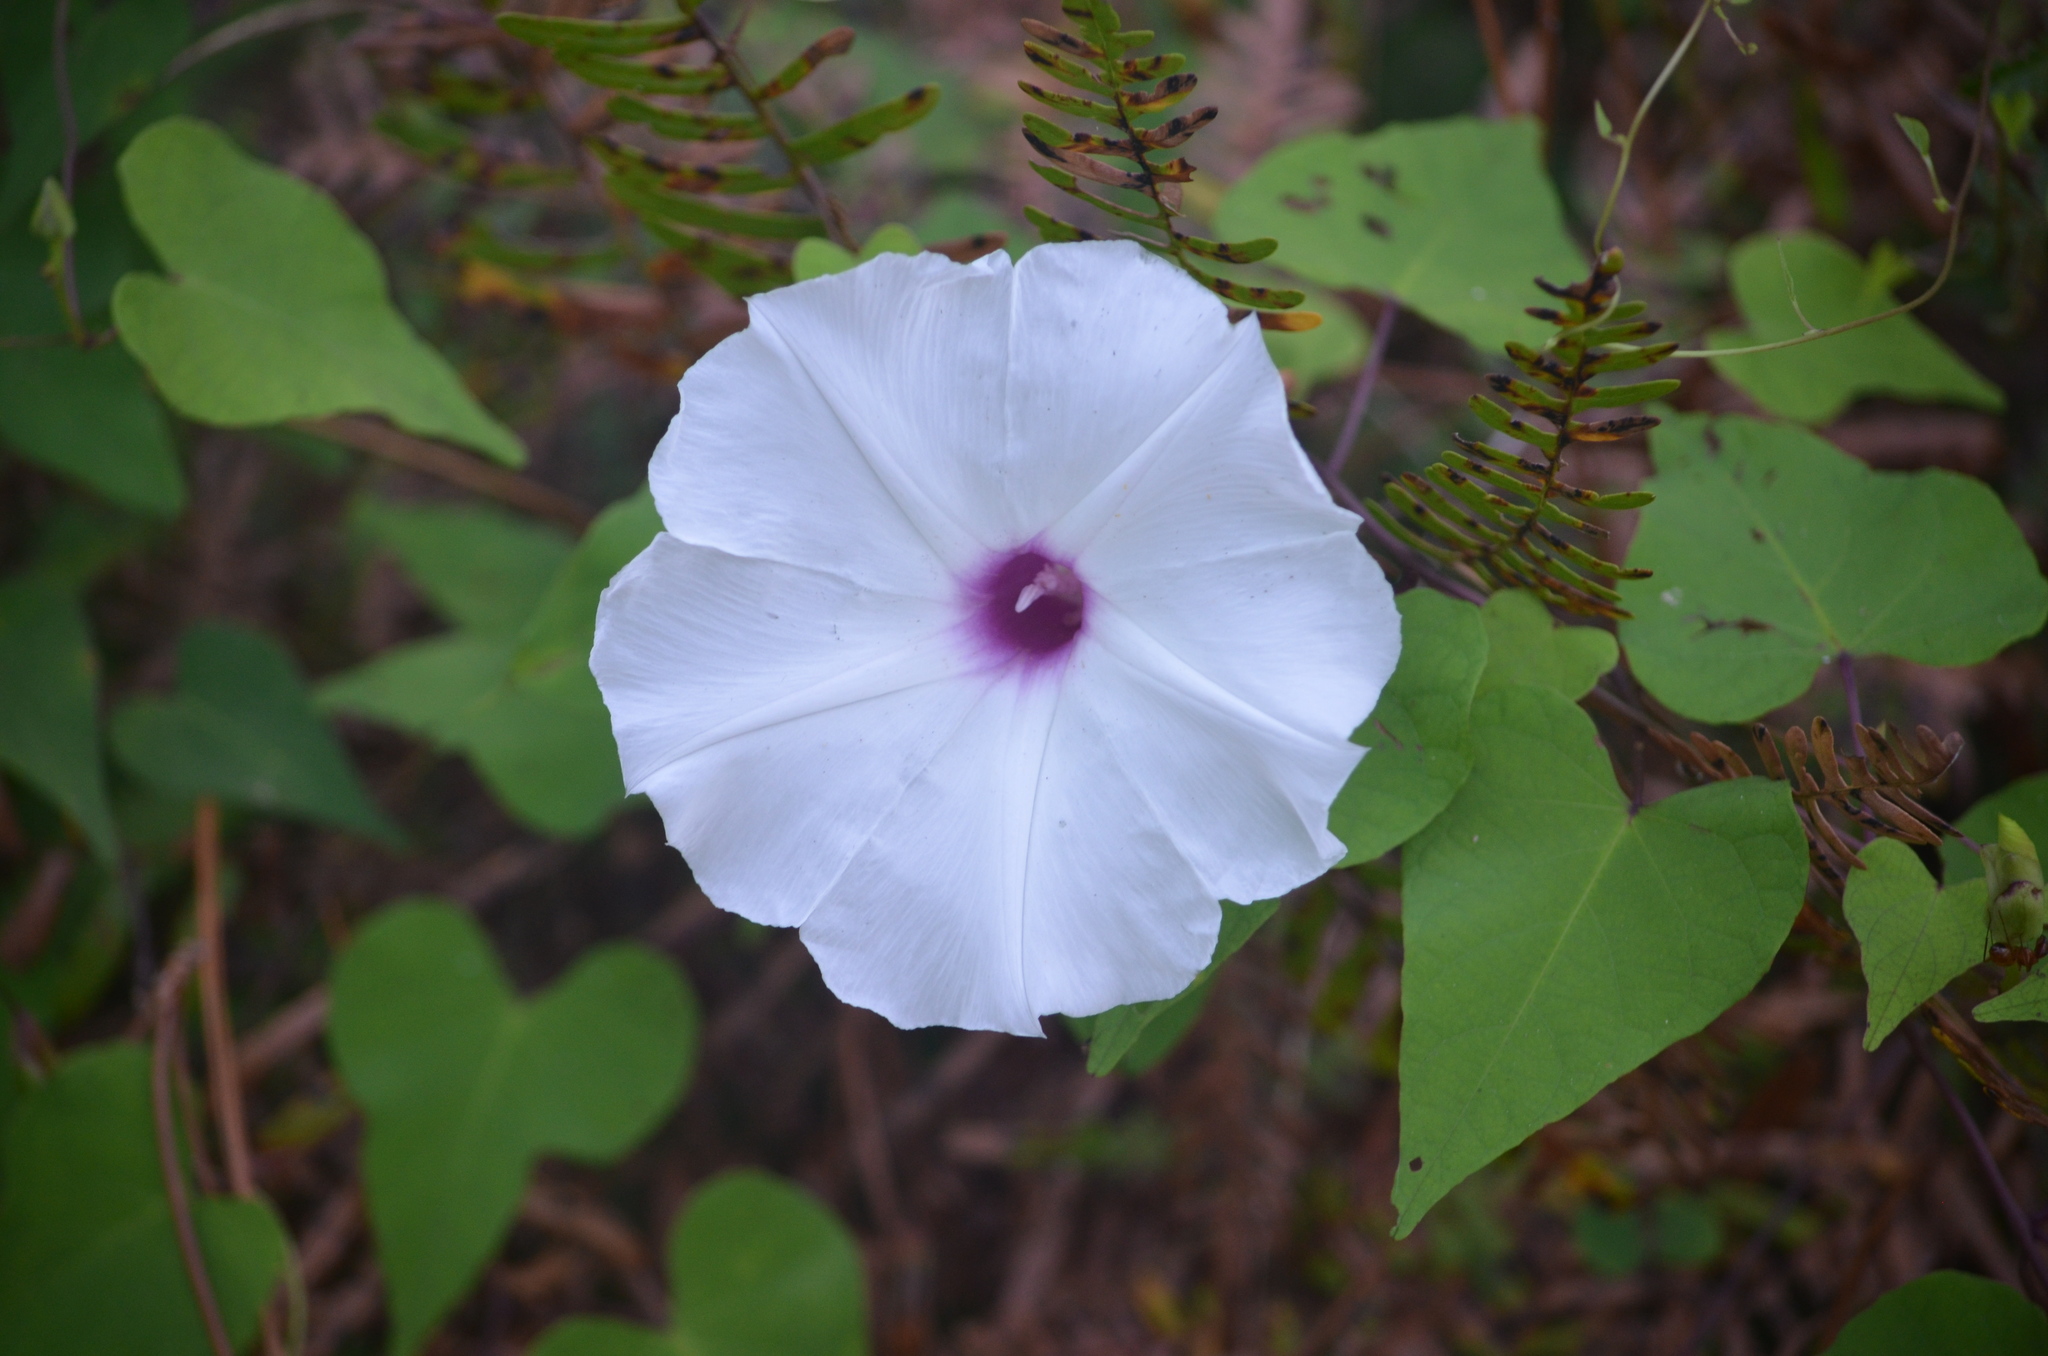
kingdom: Plantae
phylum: Tracheophyta
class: Magnoliopsida
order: Solanales
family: Convolvulaceae
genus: Ipomoea
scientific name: Ipomoea pandurata
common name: Man-of-the-earth
